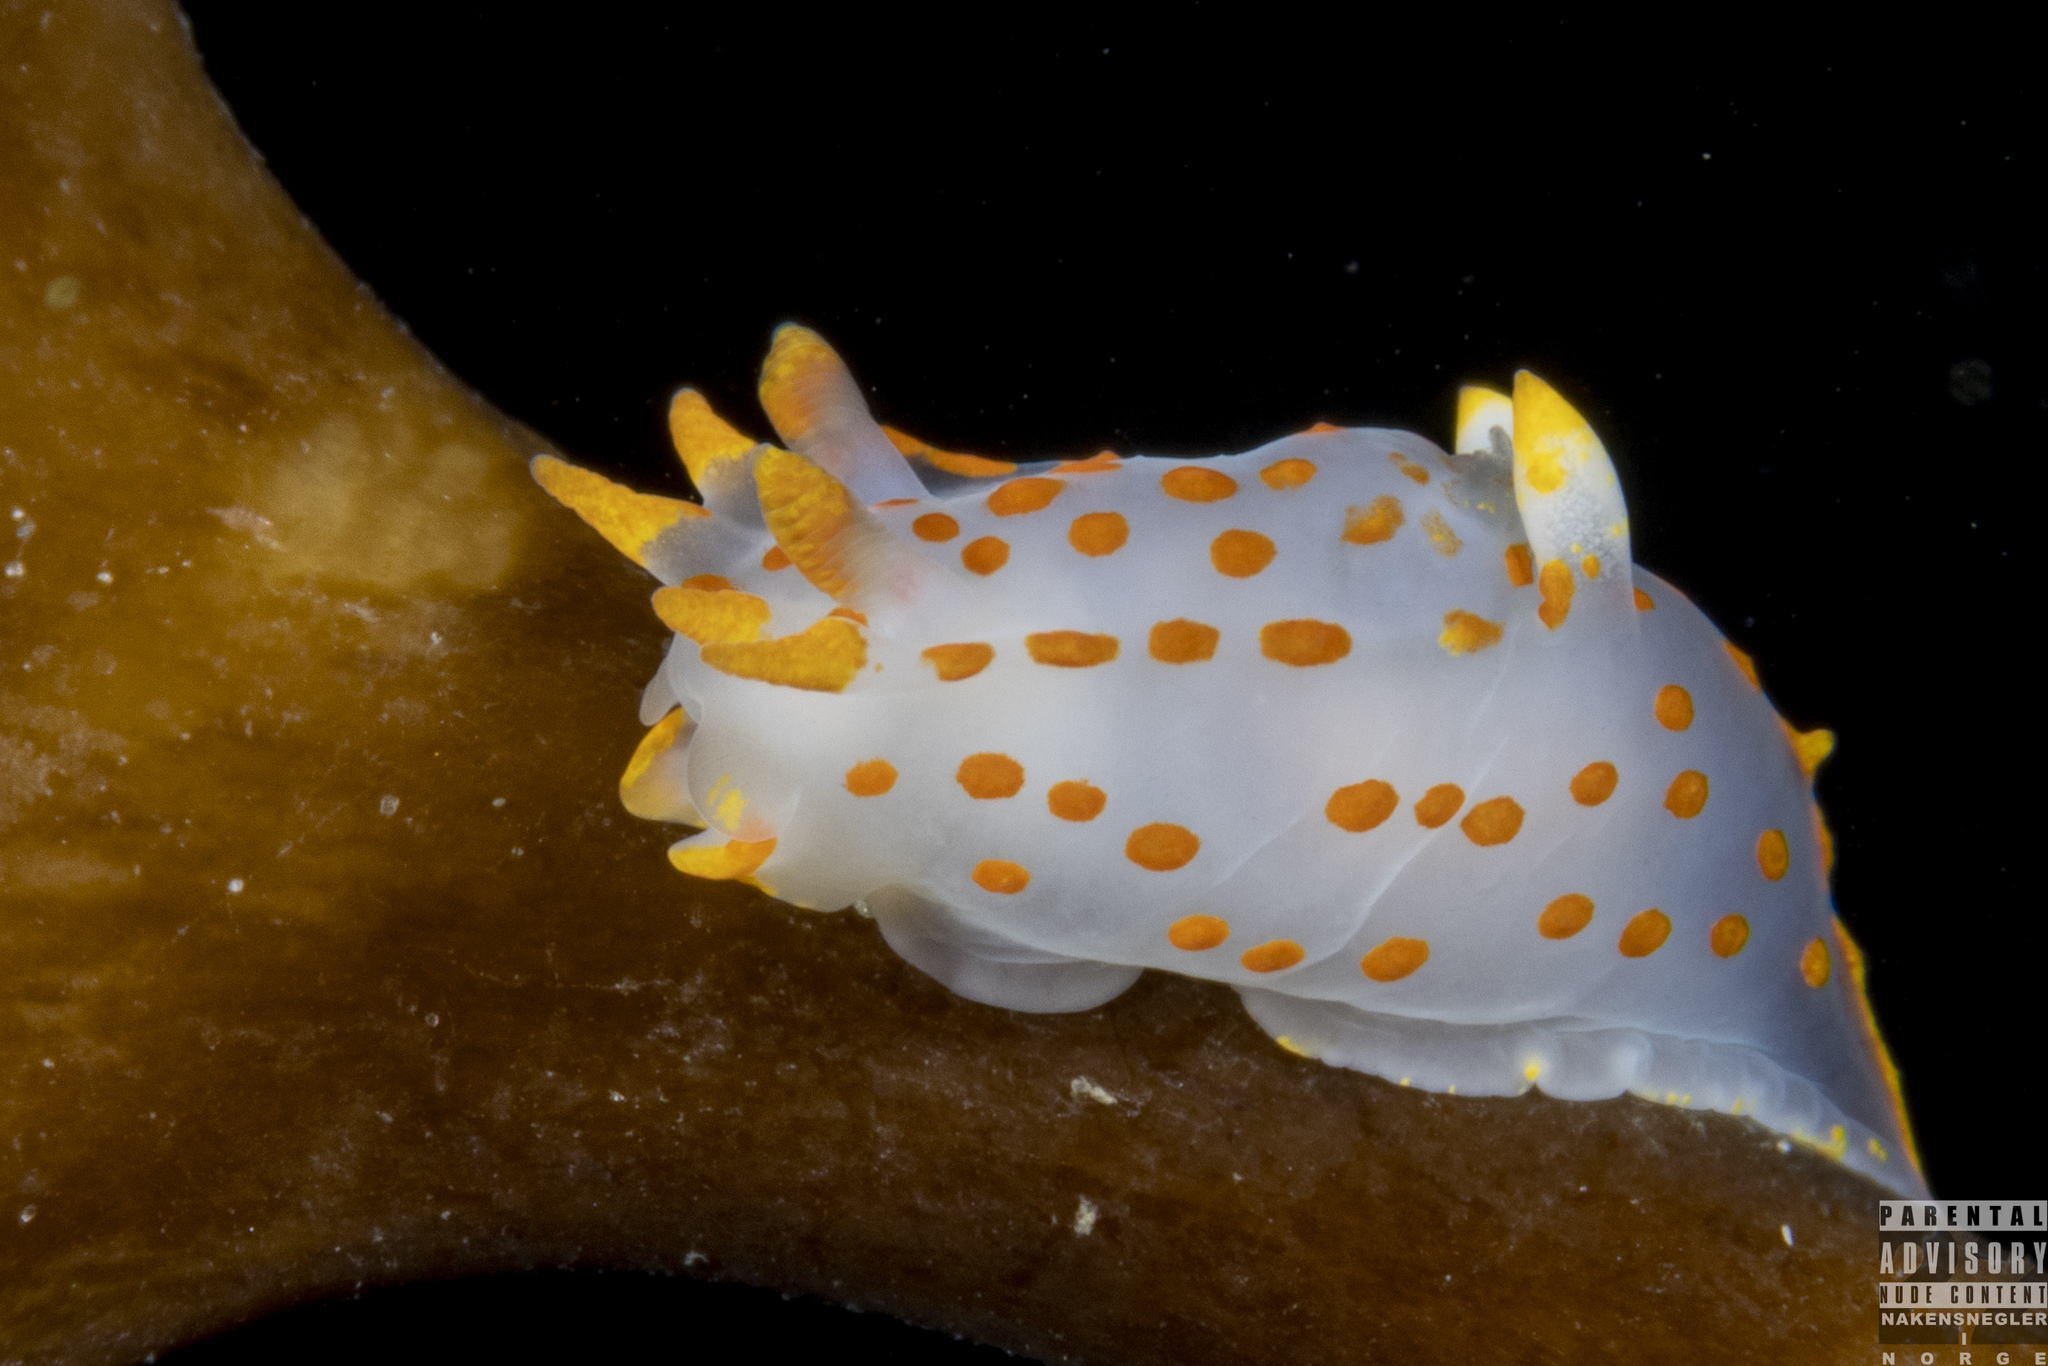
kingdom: Animalia
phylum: Mollusca
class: Gastropoda
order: Nudibranchia
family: Polyceridae
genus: Polycera
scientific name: Polycera quadrilineata
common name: Four-striped polycera
